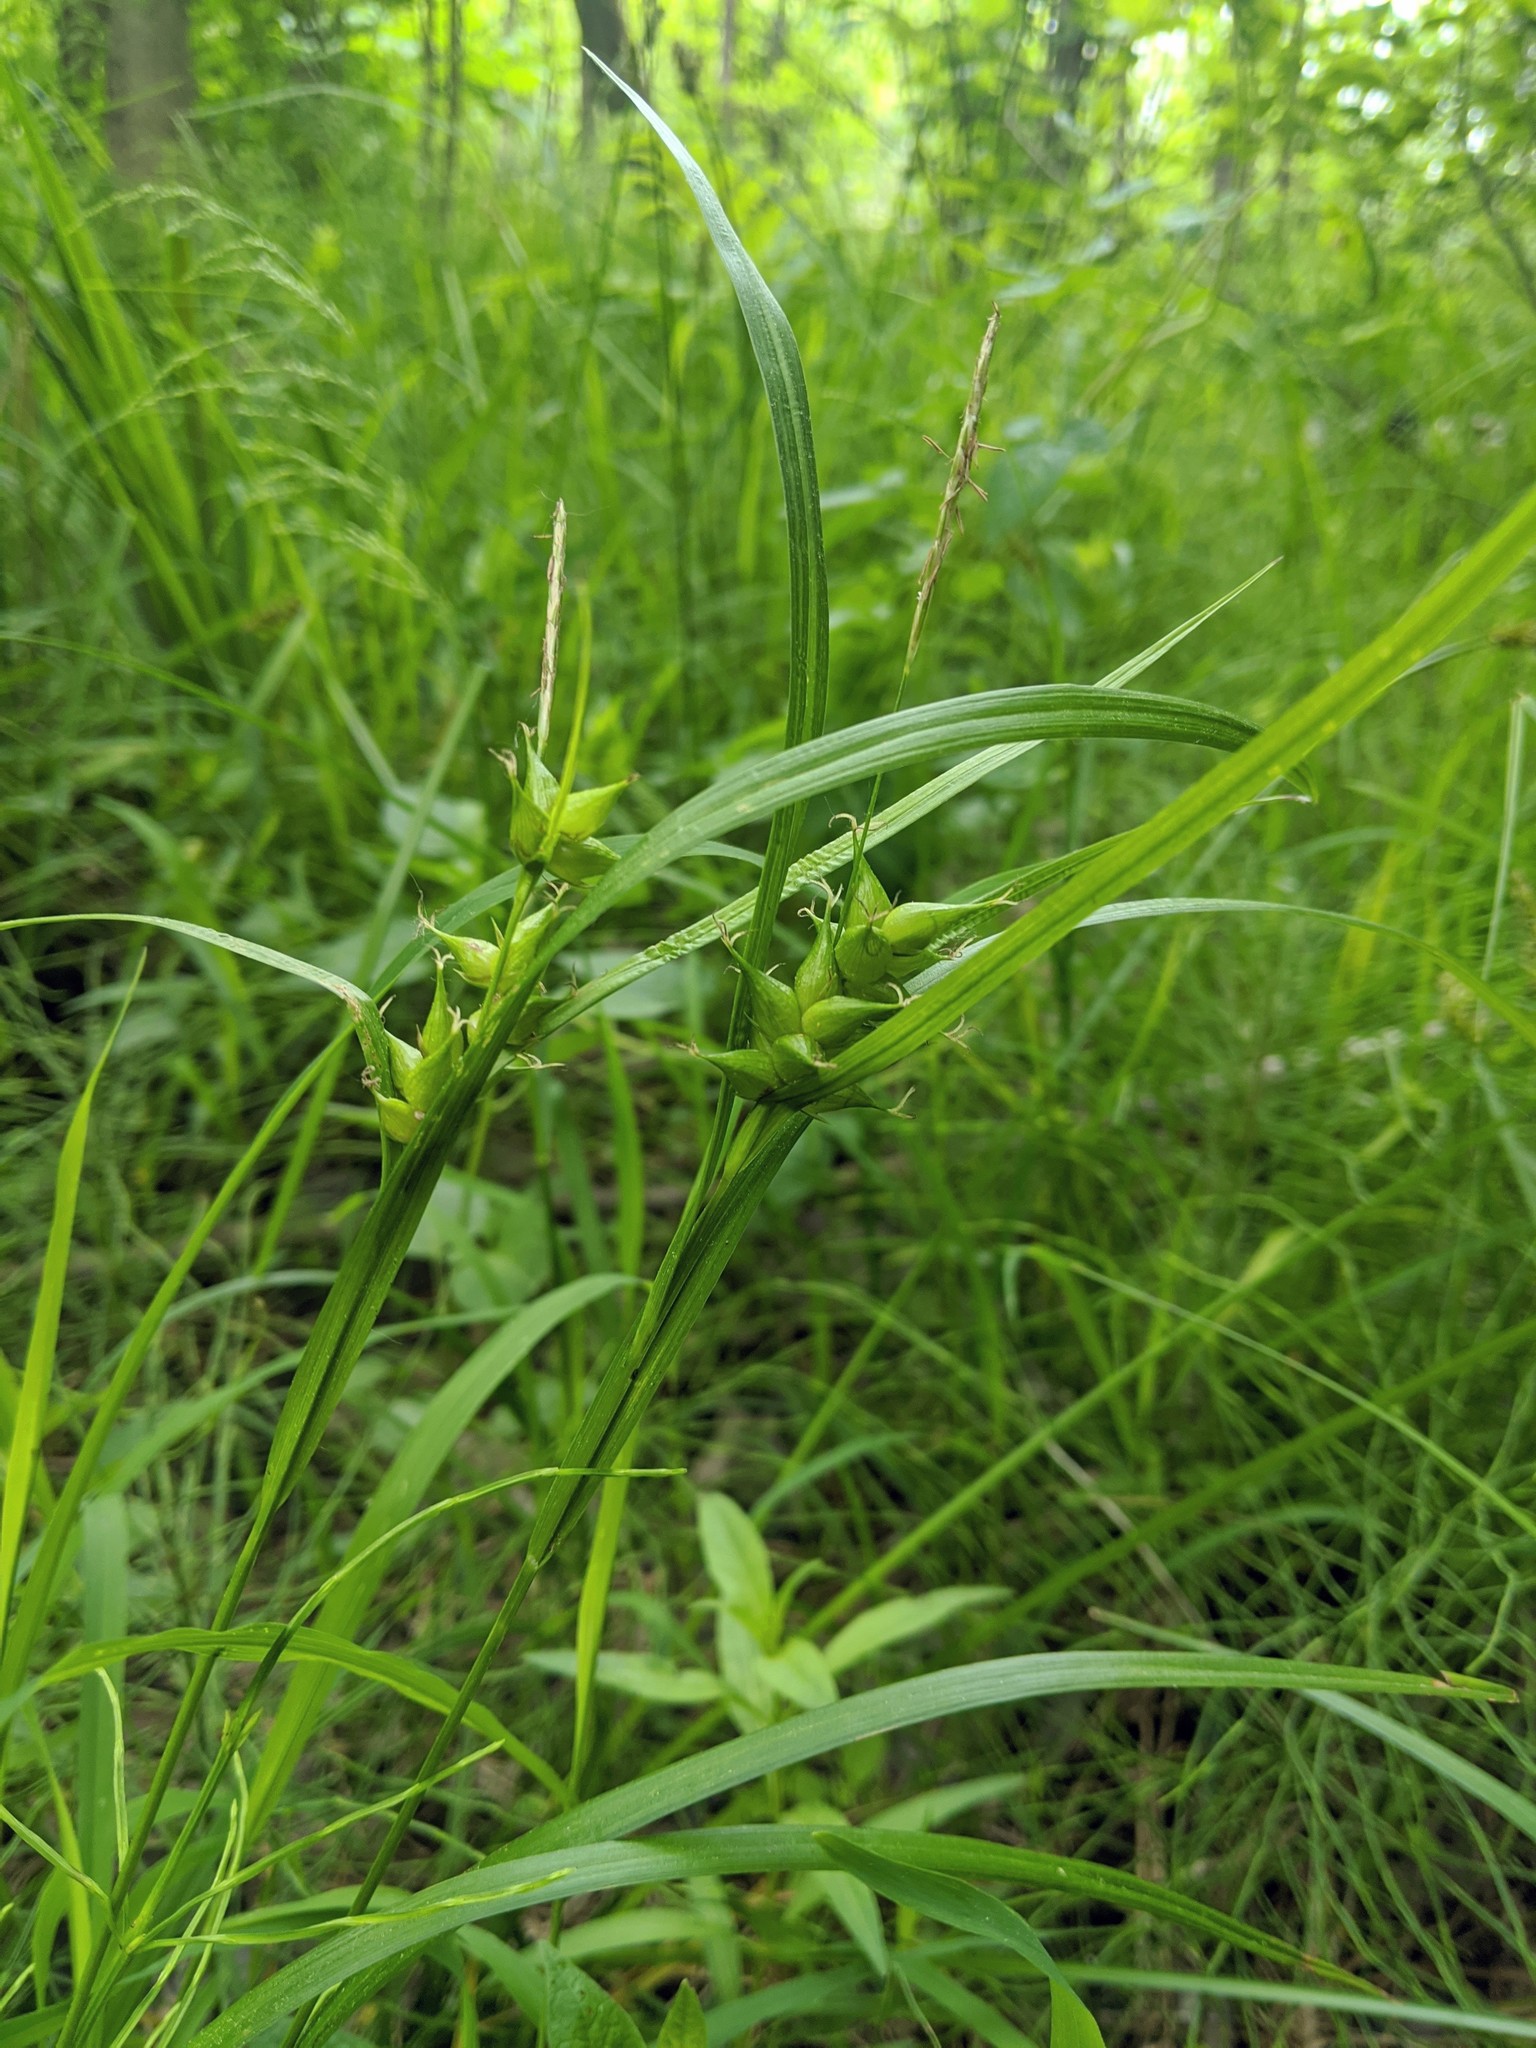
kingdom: Plantae
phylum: Tracheophyta
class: Liliopsida
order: Poales
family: Cyperaceae
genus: Carex
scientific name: Carex intumescens
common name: Greater bladder sedge
